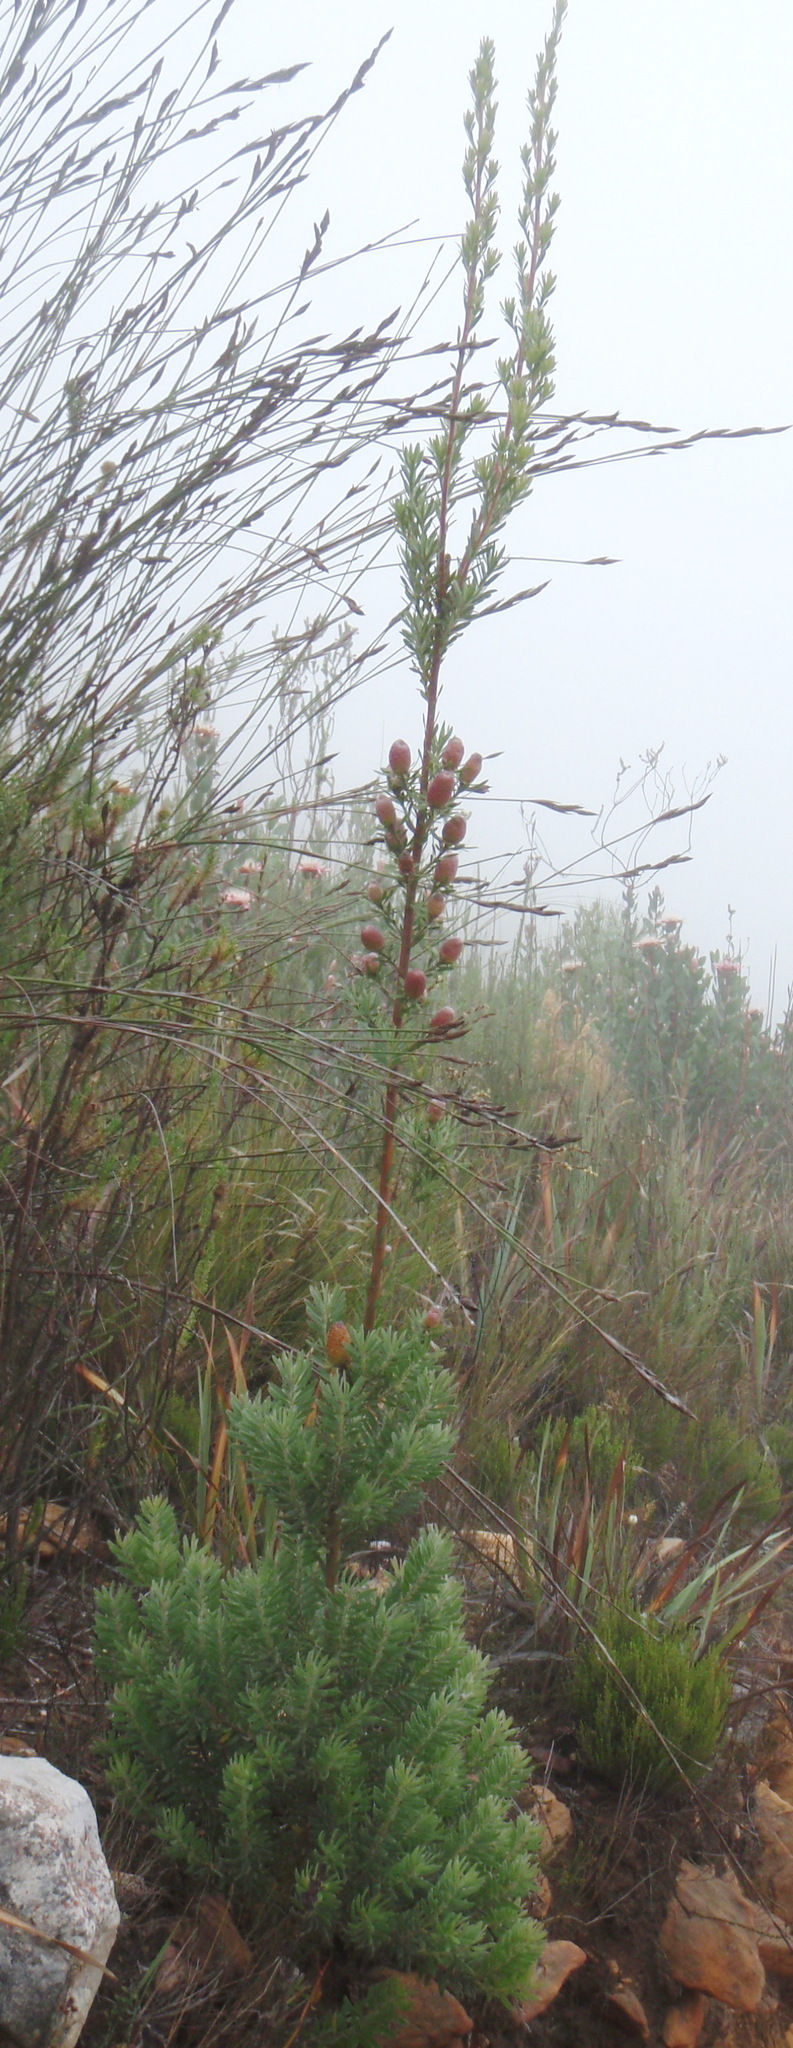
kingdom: Plantae
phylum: Tracheophyta
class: Magnoliopsida
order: Proteales
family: Proteaceae
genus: Leucadendron
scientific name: Leucadendron rourkei
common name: Uniondale conebush
